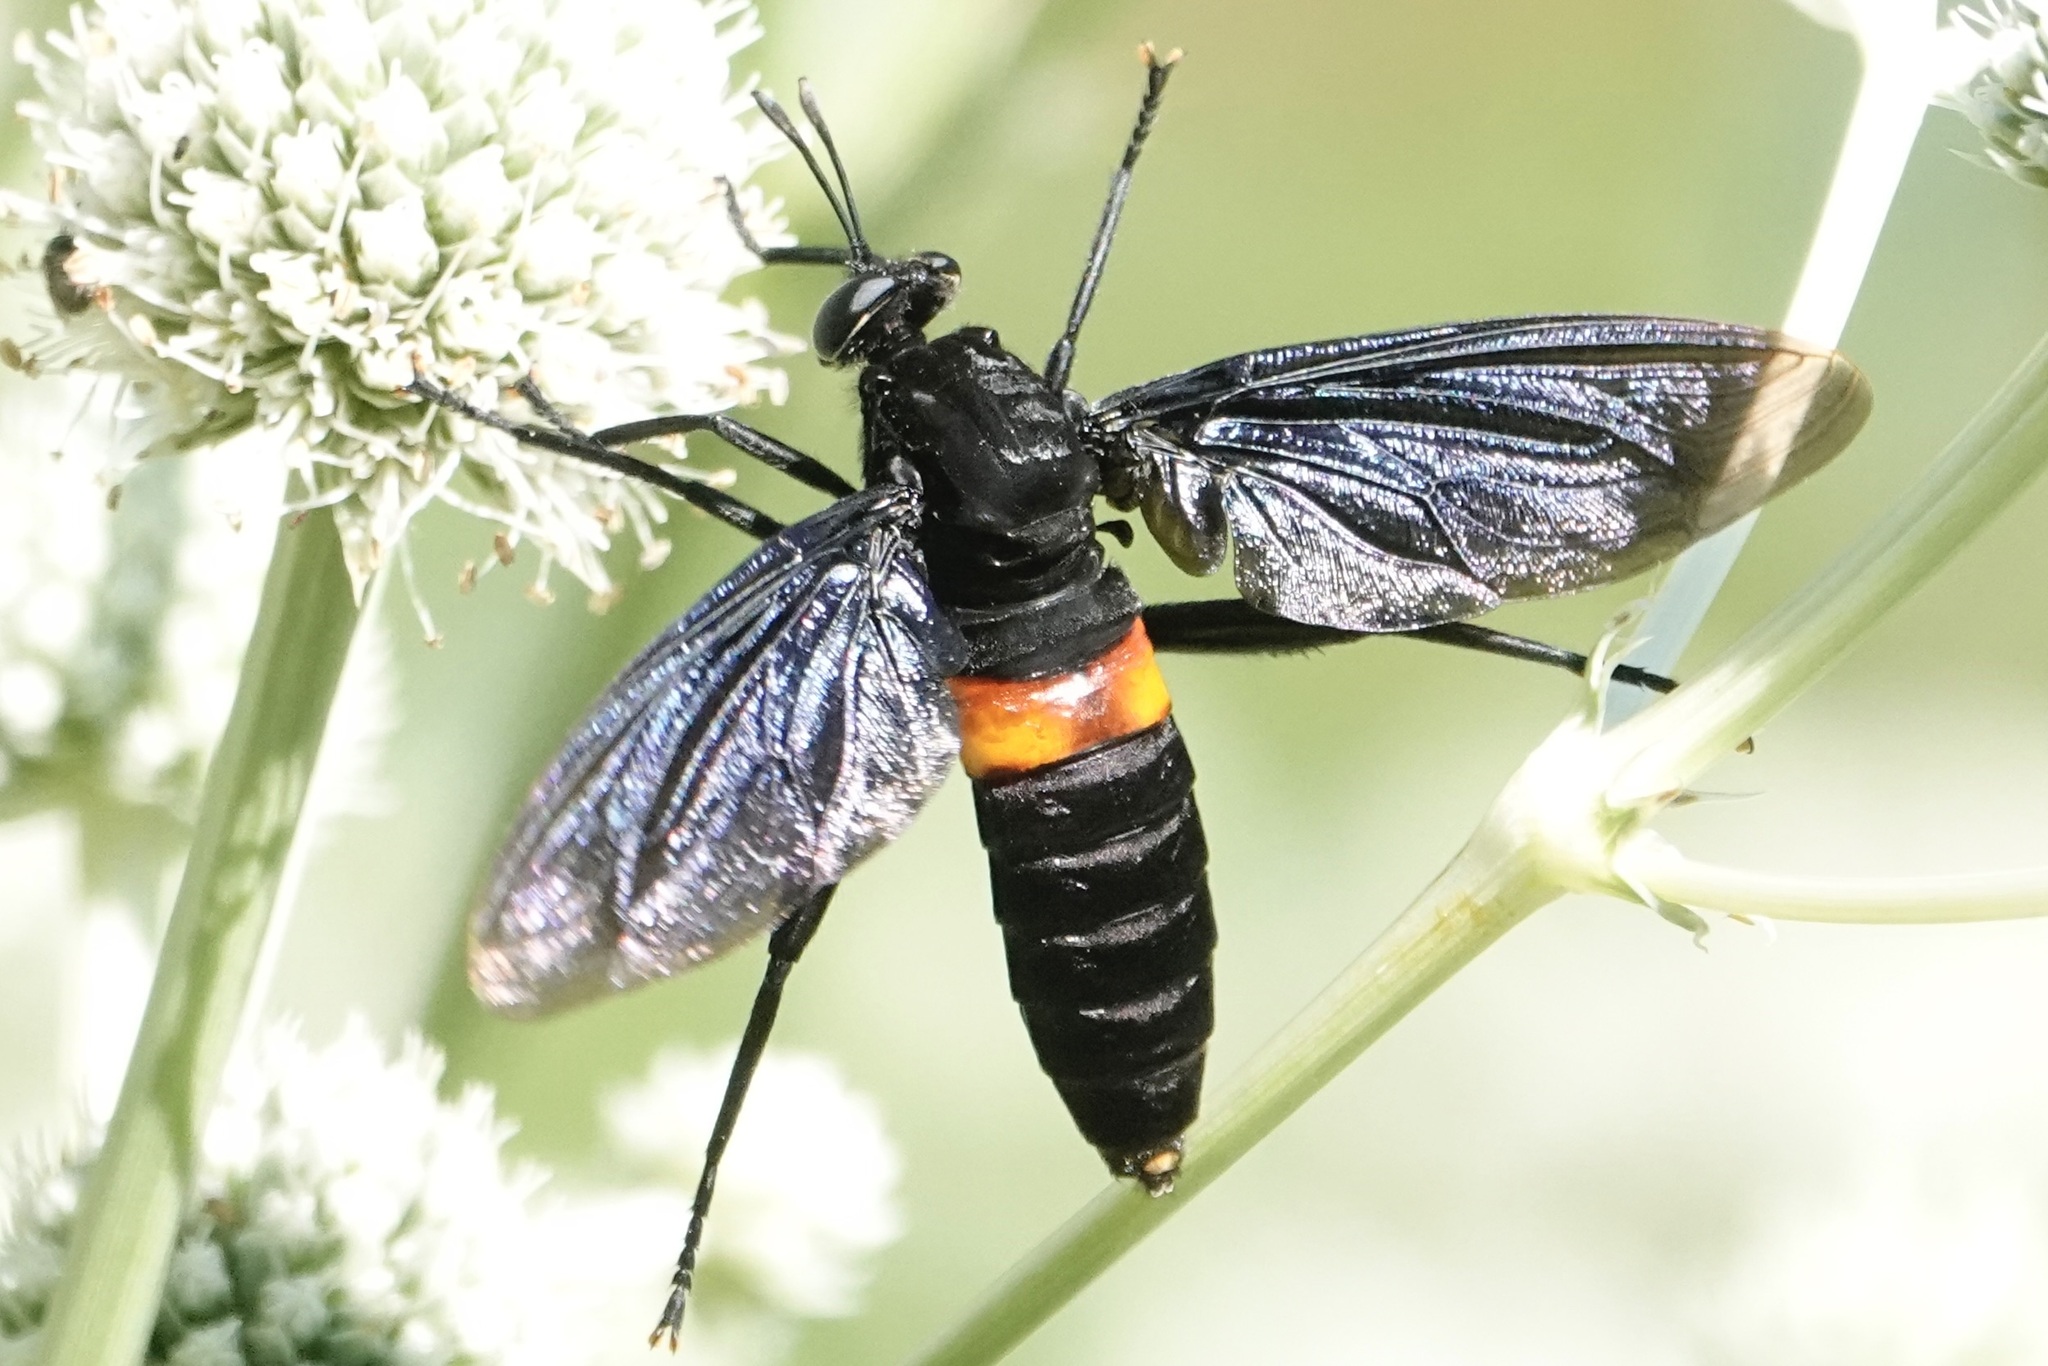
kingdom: Animalia
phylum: Arthropoda
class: Insecta
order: Diptera
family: Mydidae
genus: Mydas
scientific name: Mydas clavatus
